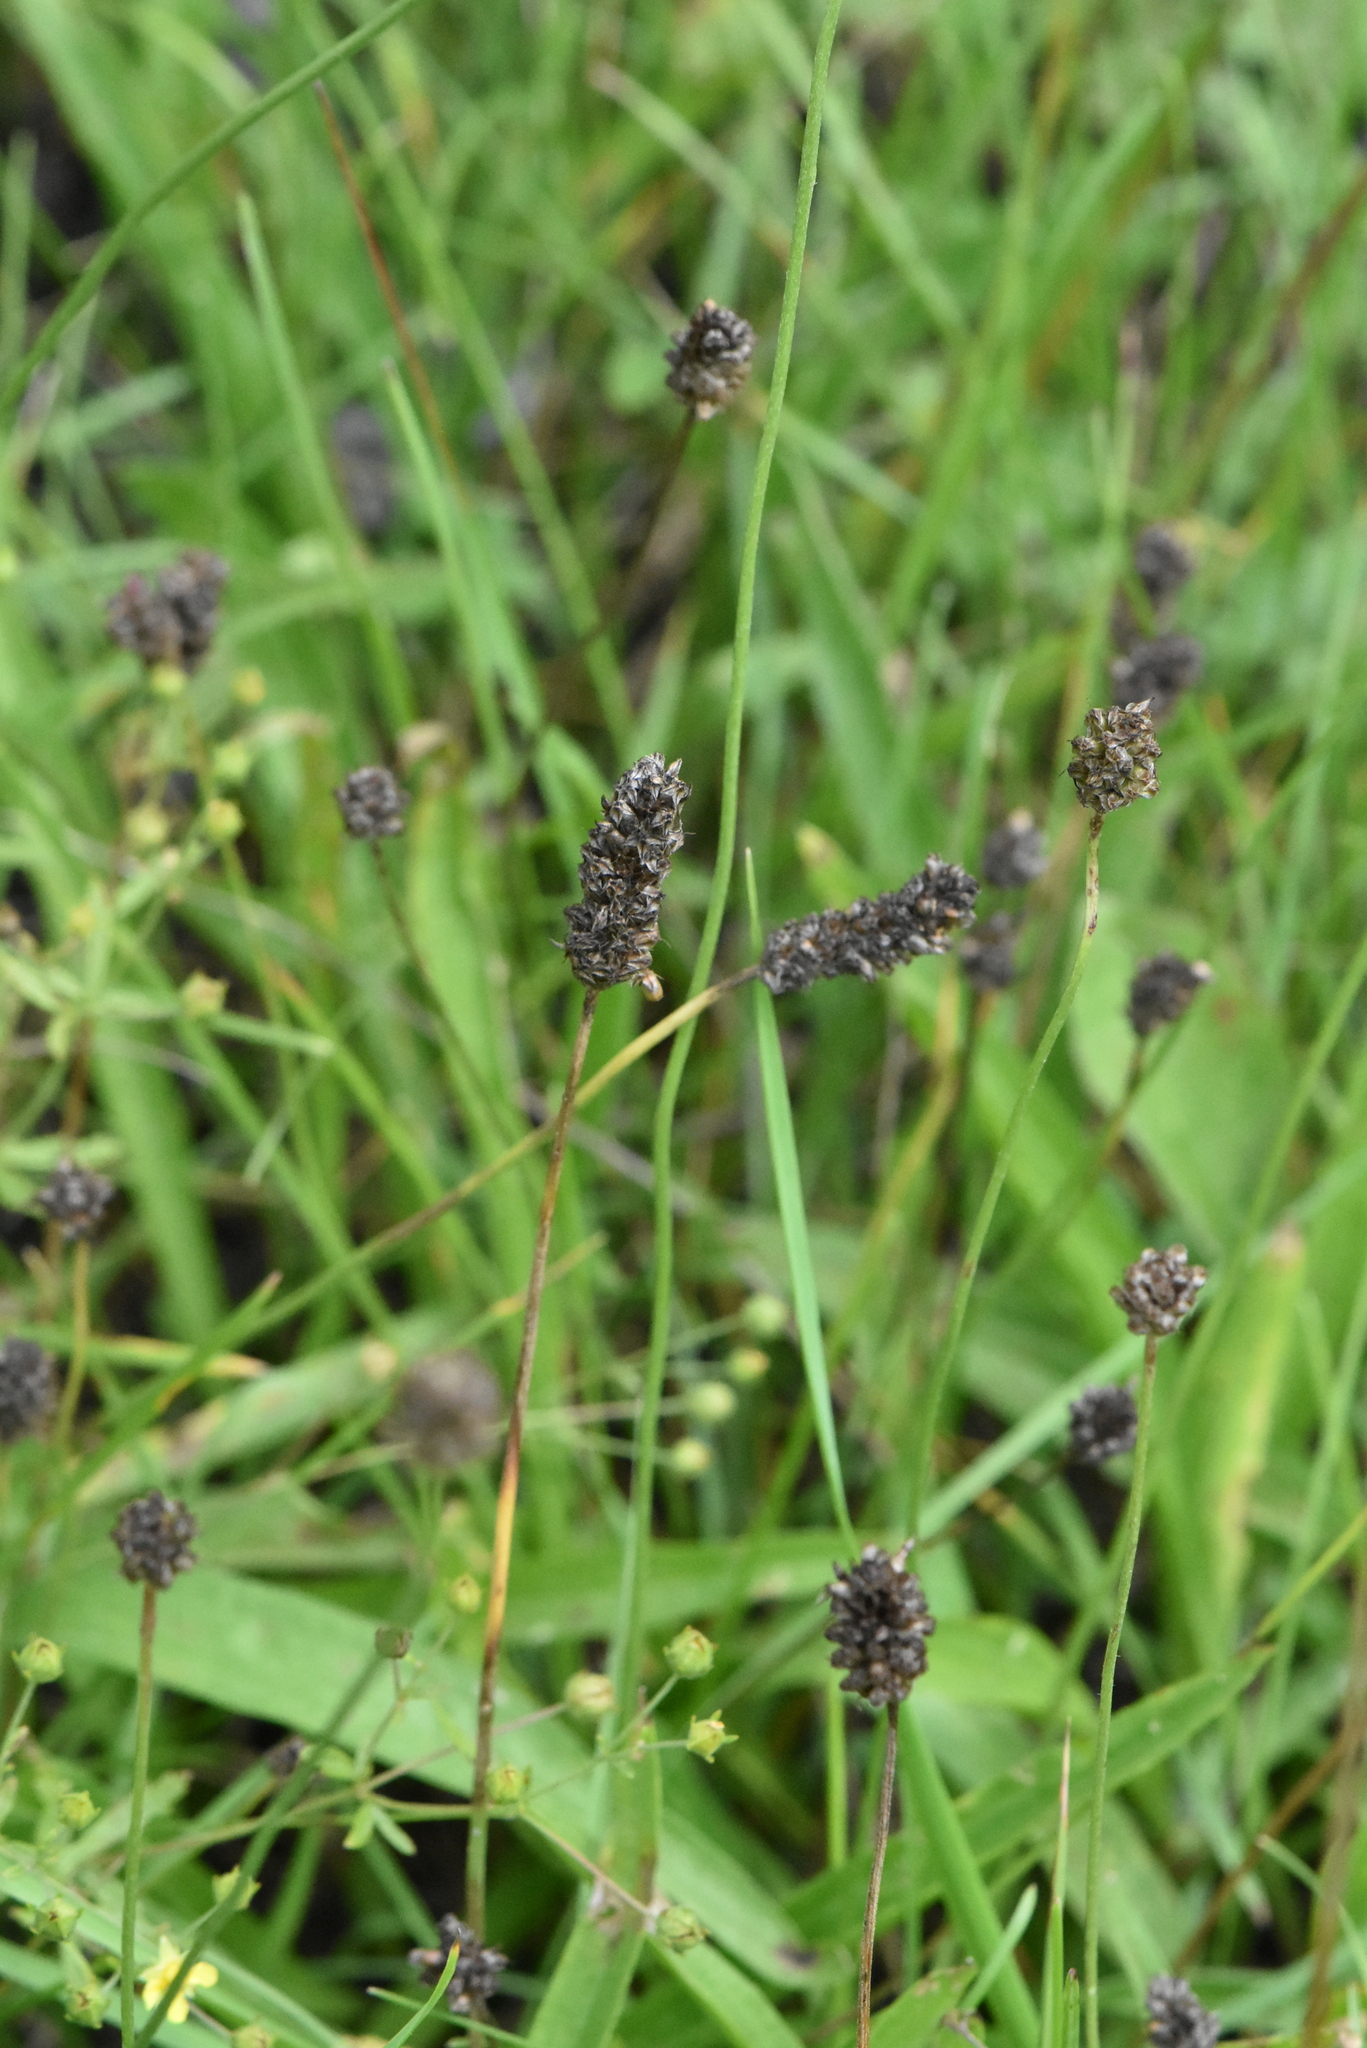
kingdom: Plantae
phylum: Tracheophyta
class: Magnoliopsida
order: Lamiales
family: Plantaginaceae
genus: Plantago
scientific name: Plantago lanceolata
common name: Ribwort plantain
